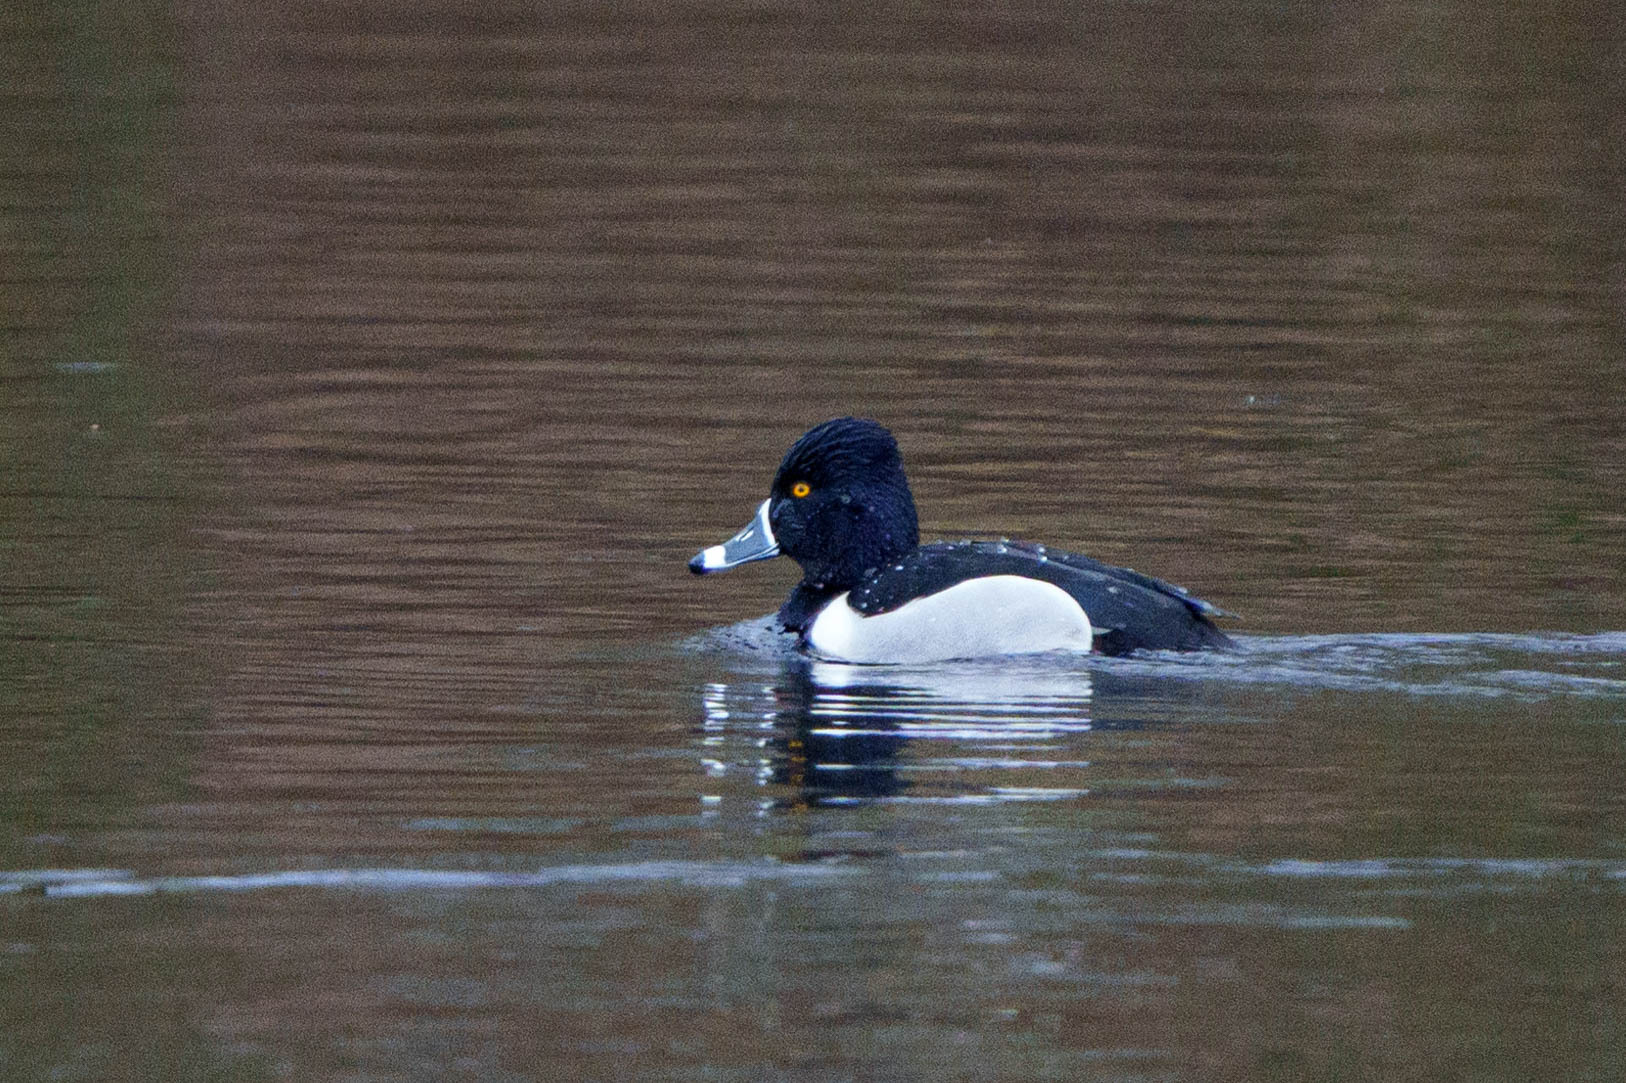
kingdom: Animalia
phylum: Chordata
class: Aves
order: Anseriformes
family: Anatidae
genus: Aythya
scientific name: Aythya collaris
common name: Ring-necked duck
